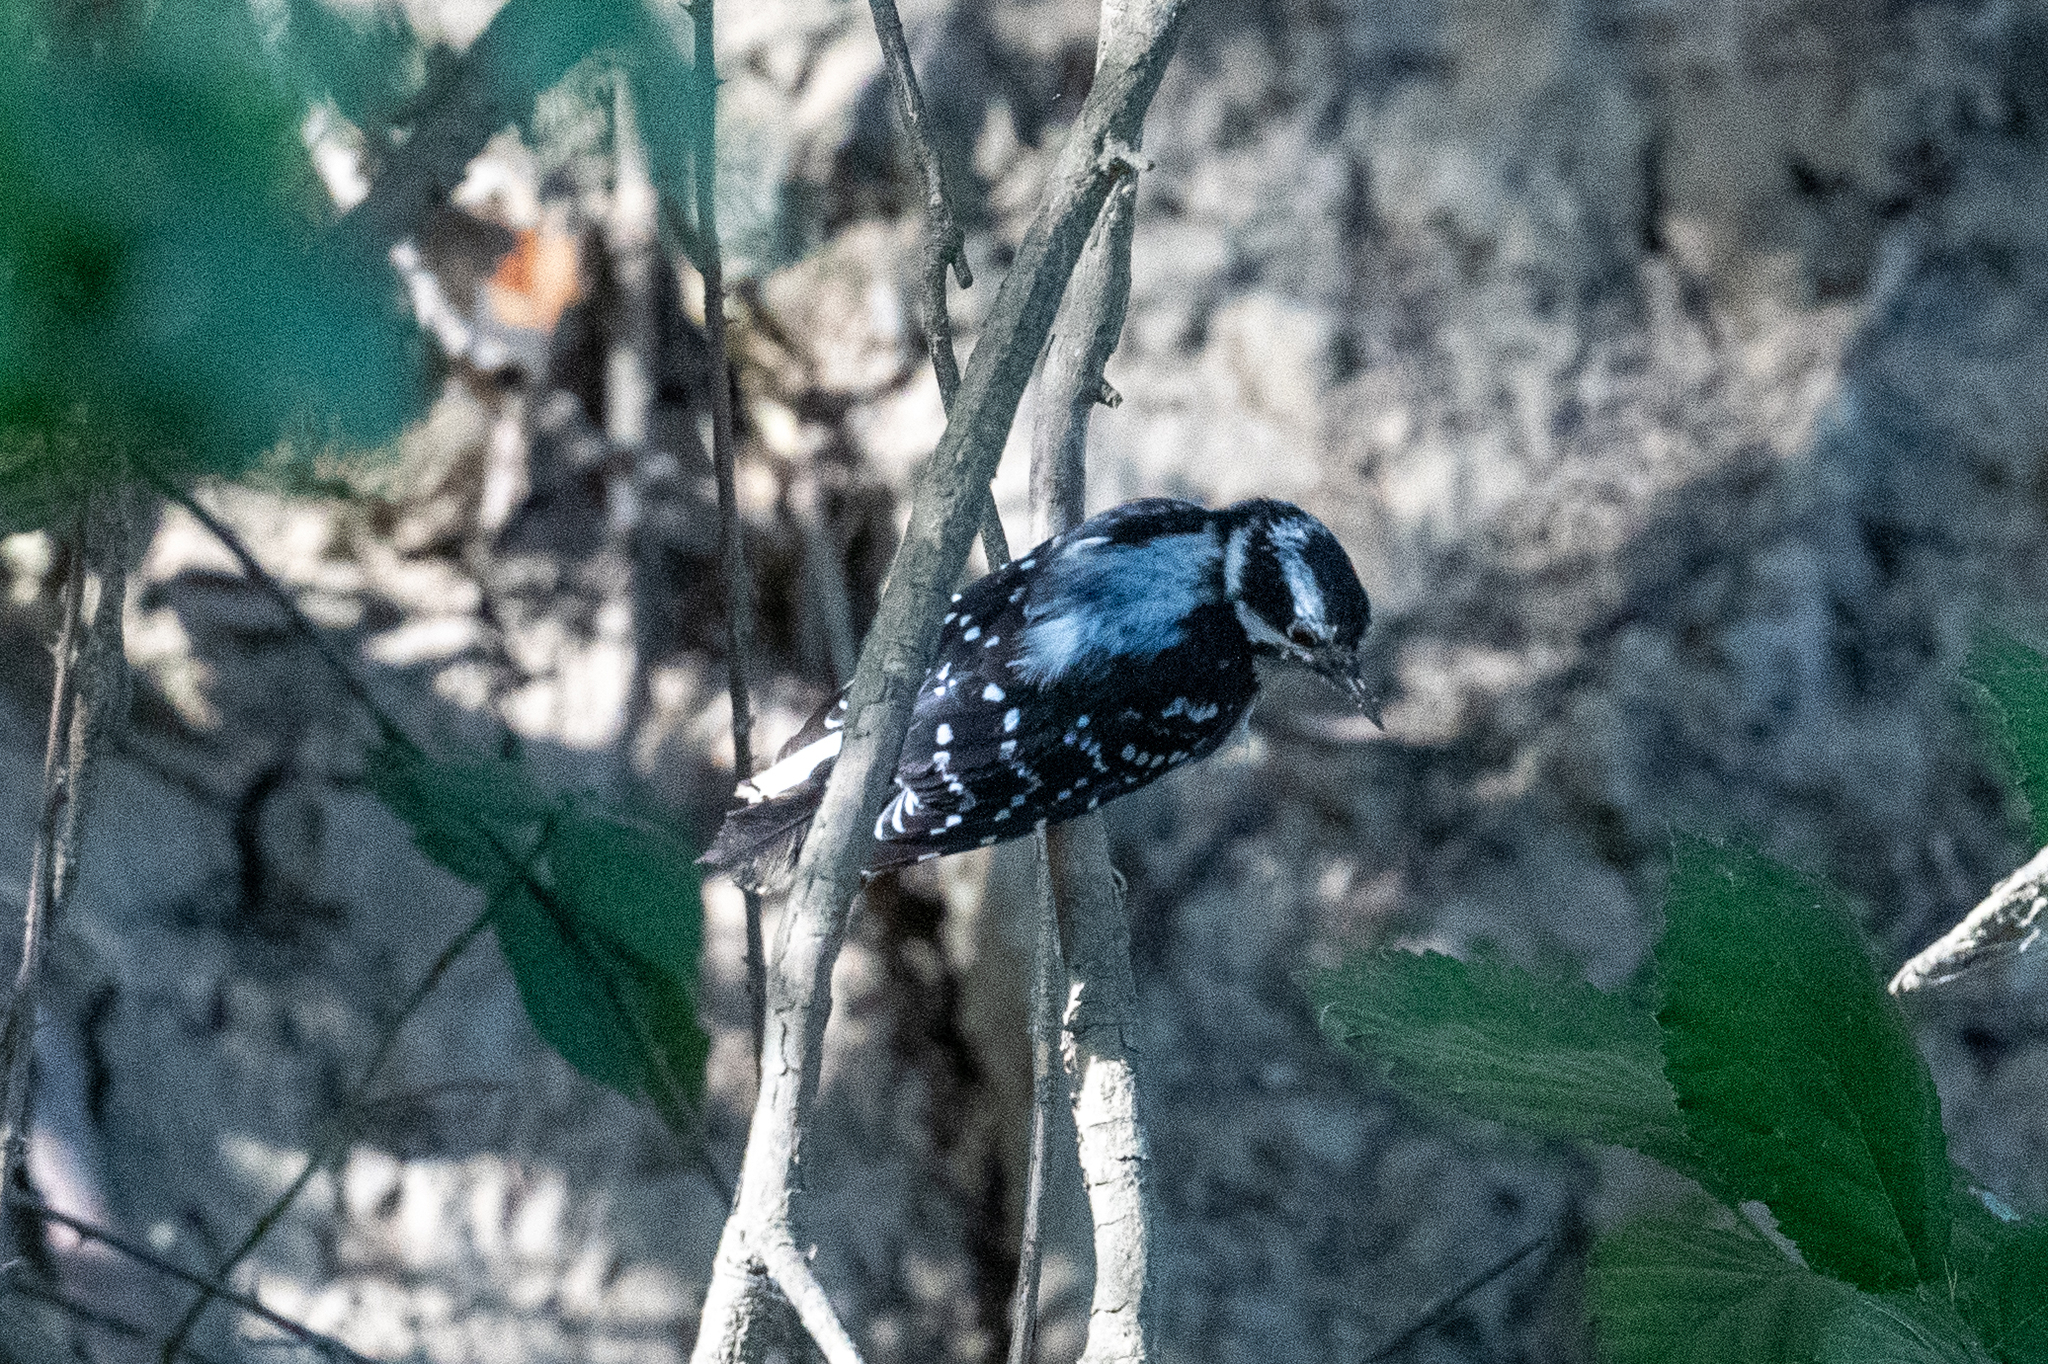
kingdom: Animalia
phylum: Chordata
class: Aves
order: Piciformes
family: Picidae
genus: Dryobates
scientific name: Dryobates pubescens
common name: Downy woodpecker
